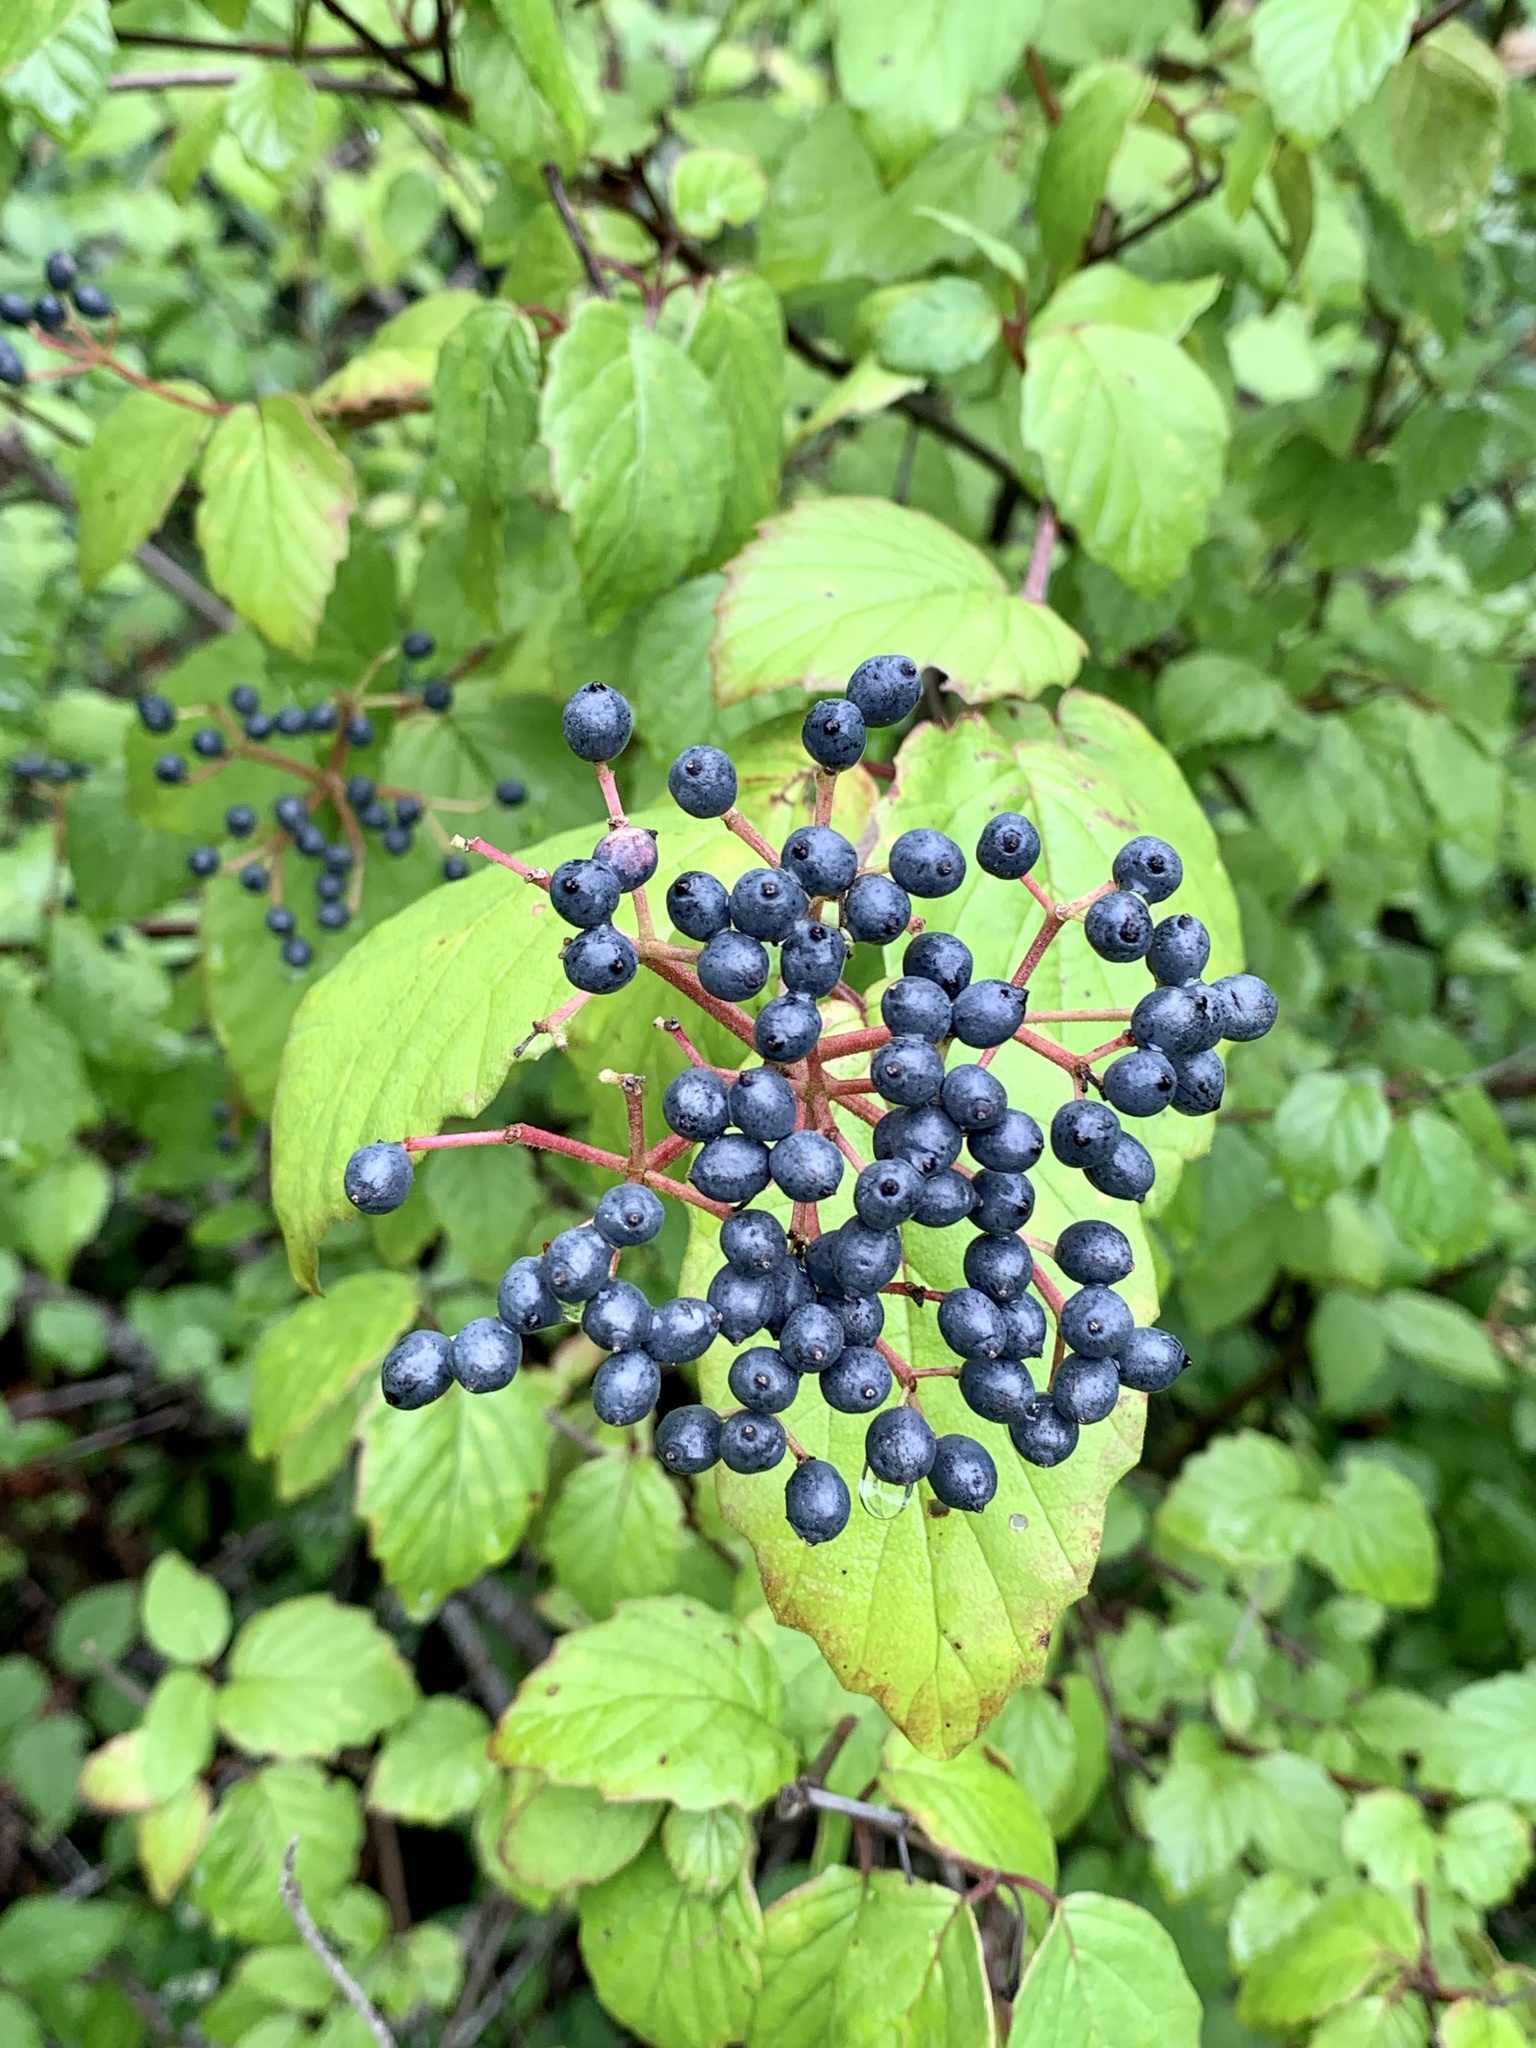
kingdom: Plantae
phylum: Tracheophyta
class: Magnoliopsida
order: Dipsacales
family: Viburnaceae
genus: Viburnum
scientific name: Viburnum scabrellum
